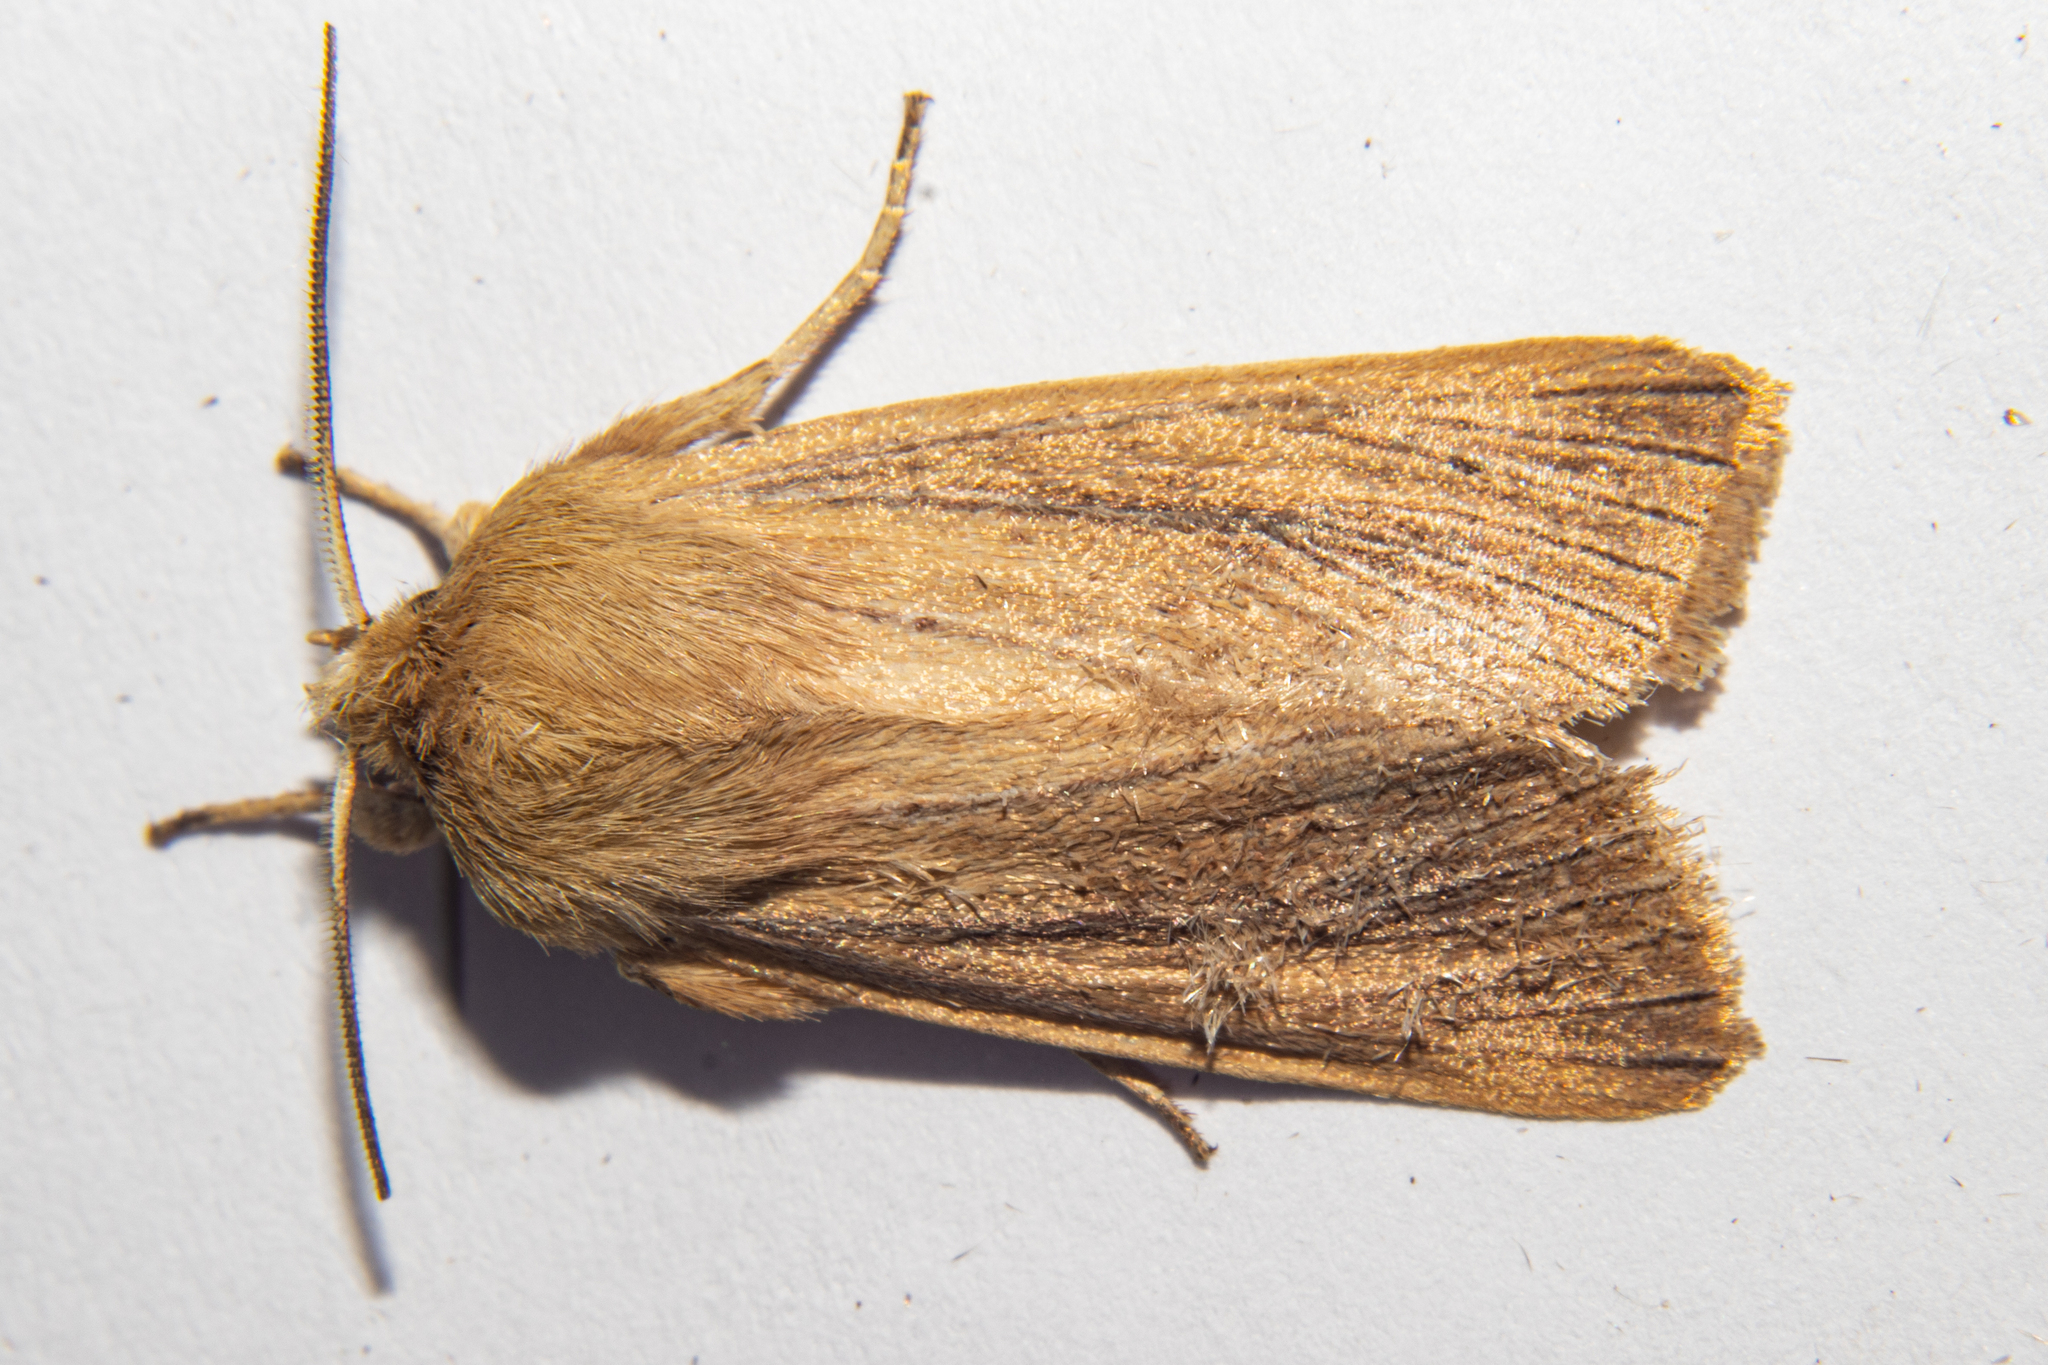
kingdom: Animalia
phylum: Arthropoda
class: Insecta
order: Lepidoptera
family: Noctuidae
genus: Ichneutica
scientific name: Ichneutica
